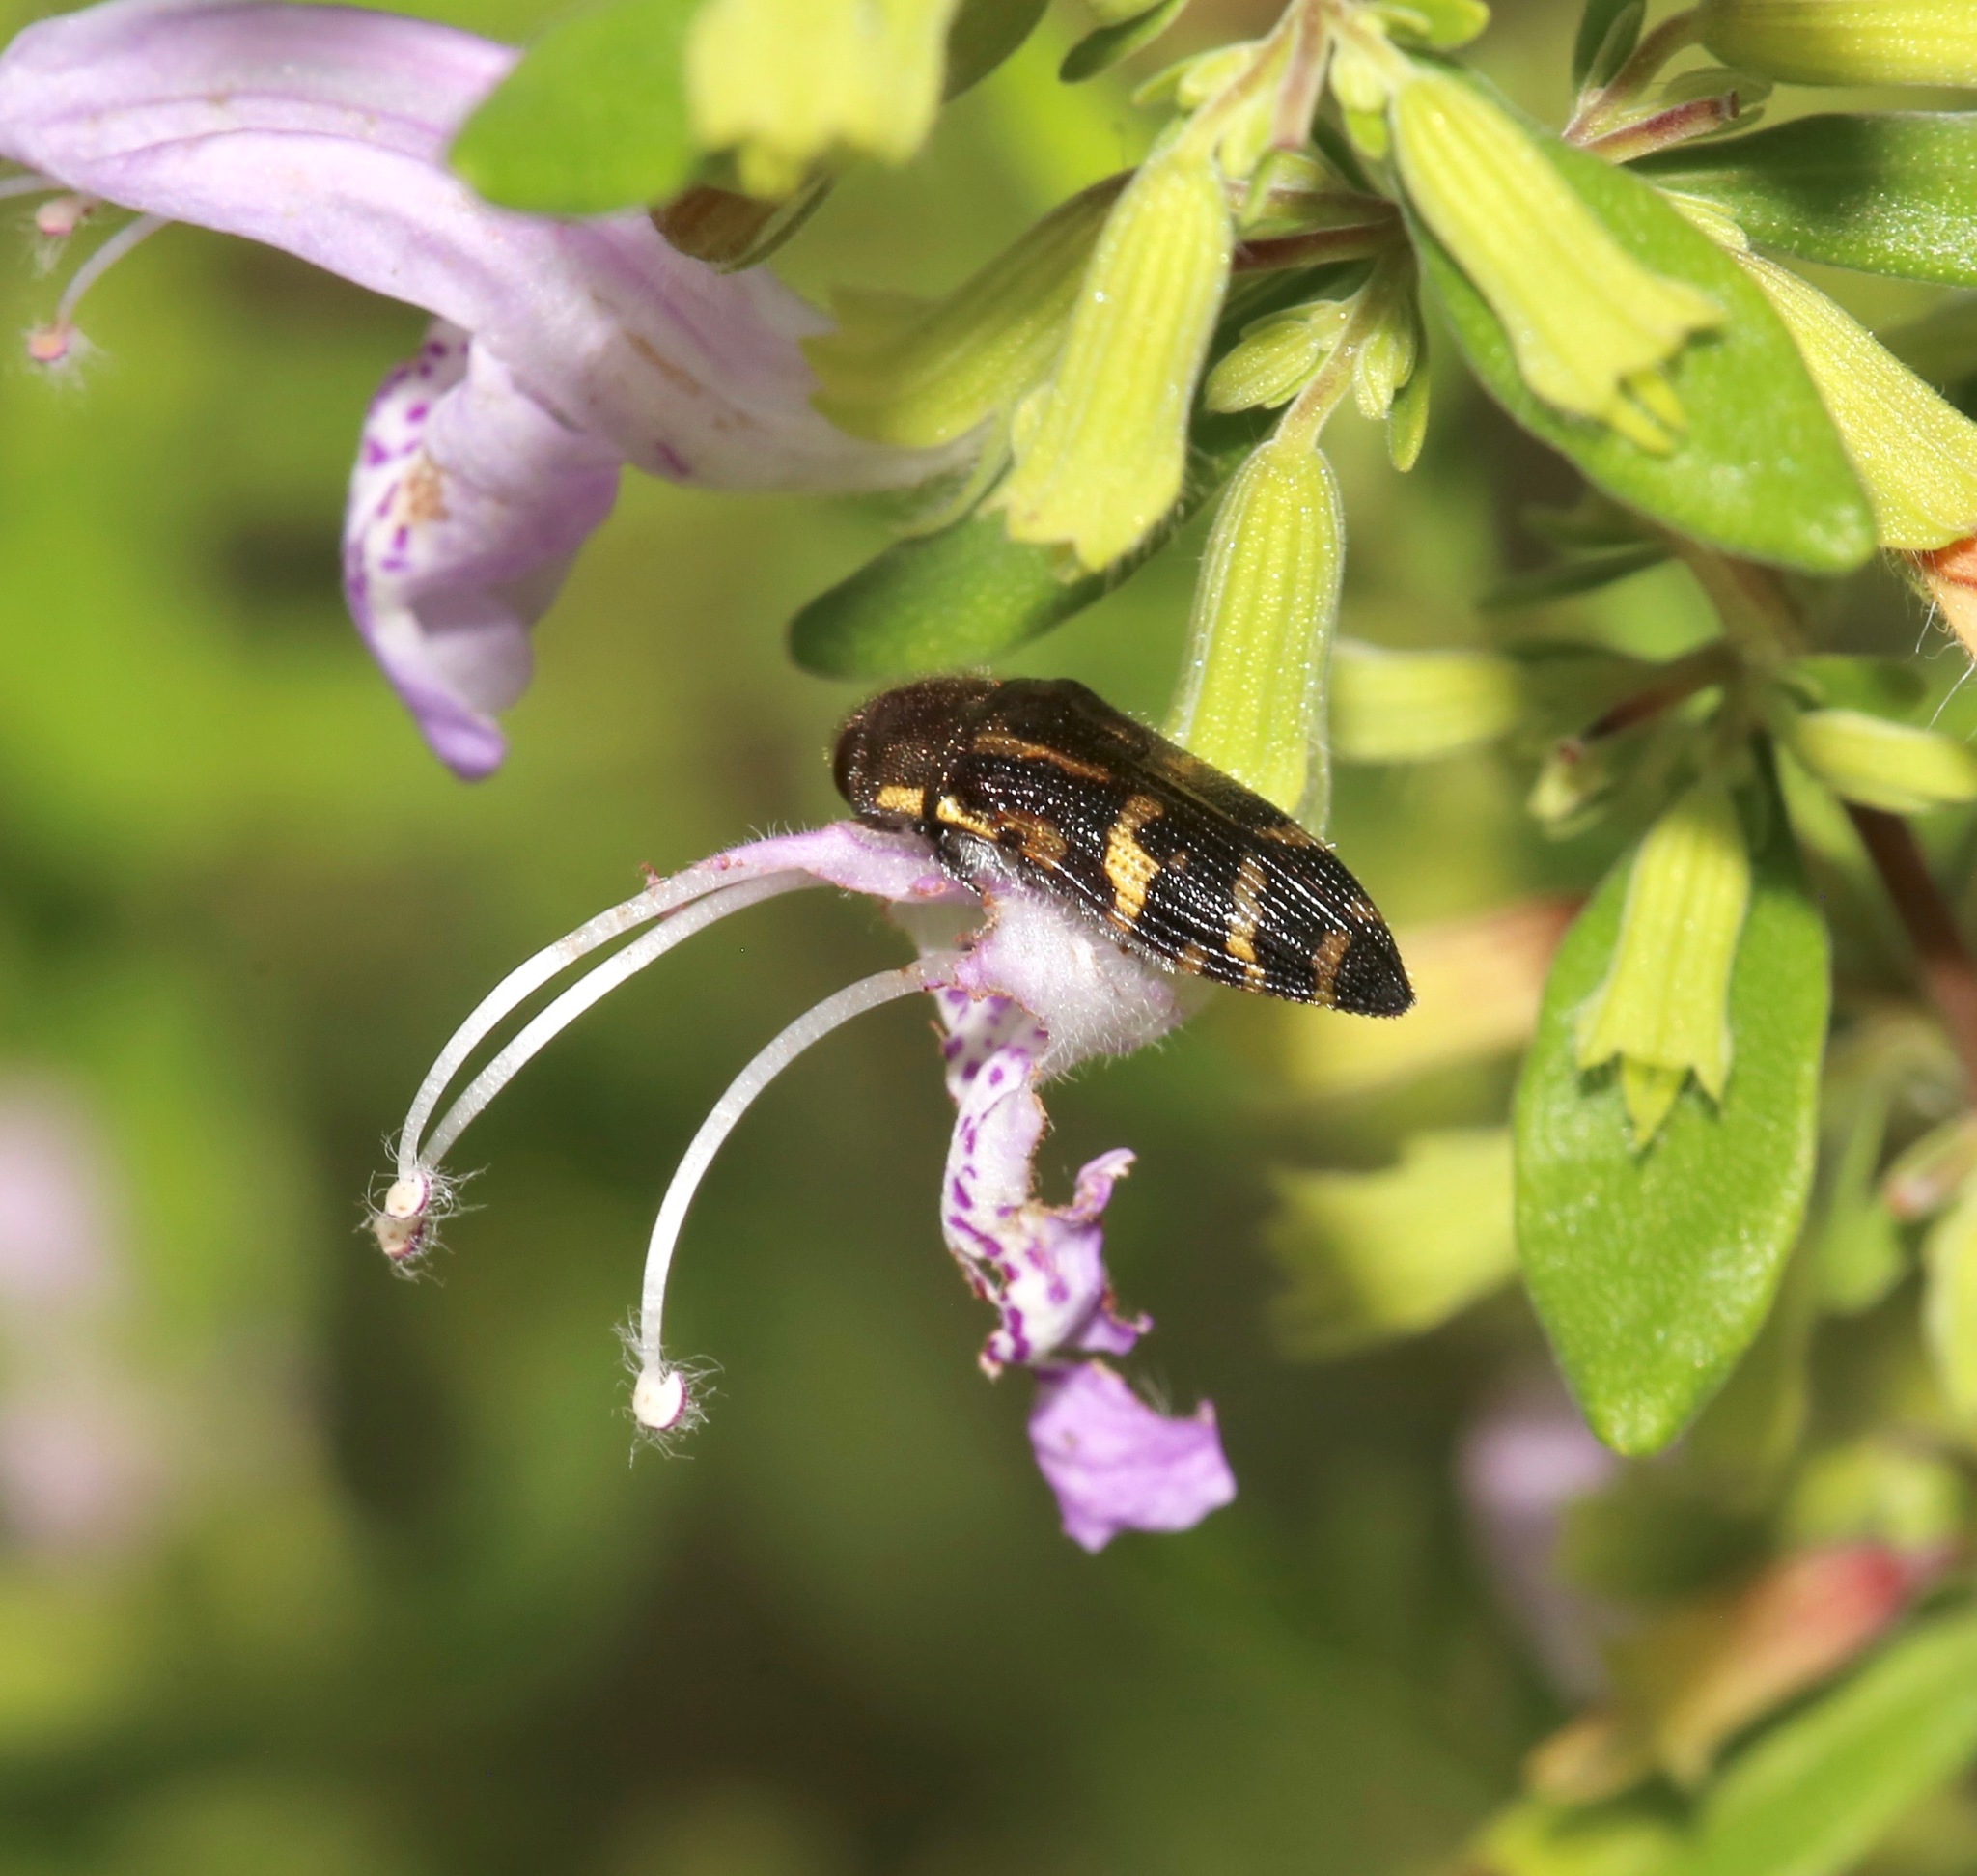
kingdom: Animalia
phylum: Arthropoda
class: Insecta
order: Coleoptera
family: Buprestidae
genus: Acmaeodera
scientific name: Acmaeodera pulchella
